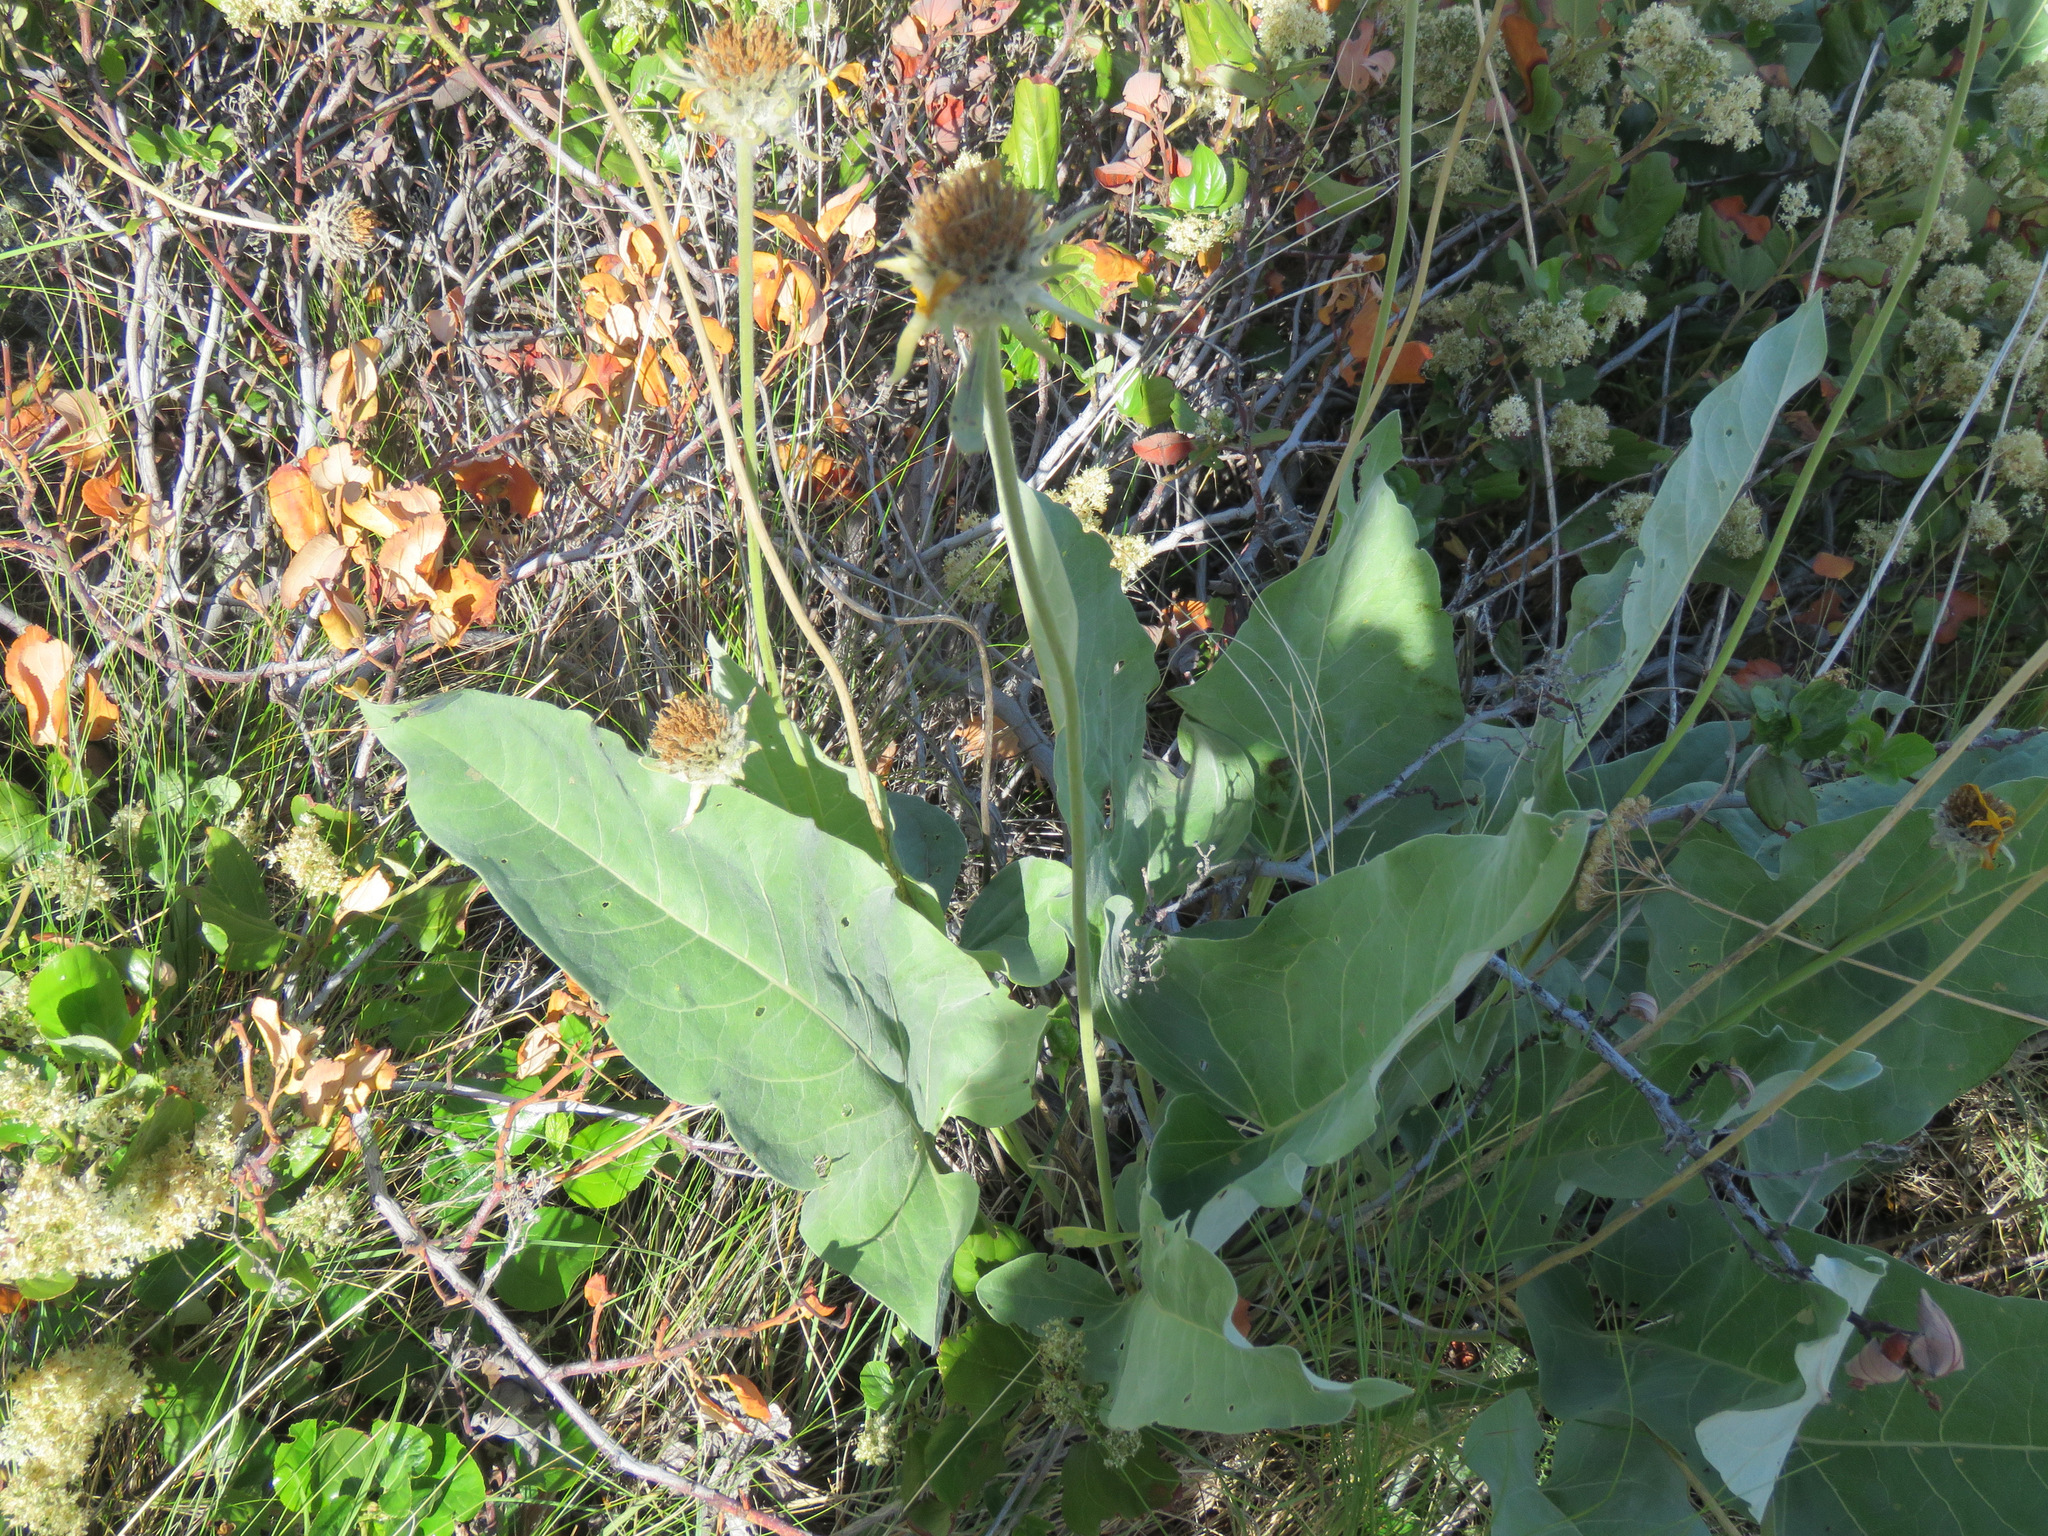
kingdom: Plantae
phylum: Tracheophyta
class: Magnoliopsida
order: Asterales
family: Asteraceae
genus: Wyethia
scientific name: Wyethia sagittata
